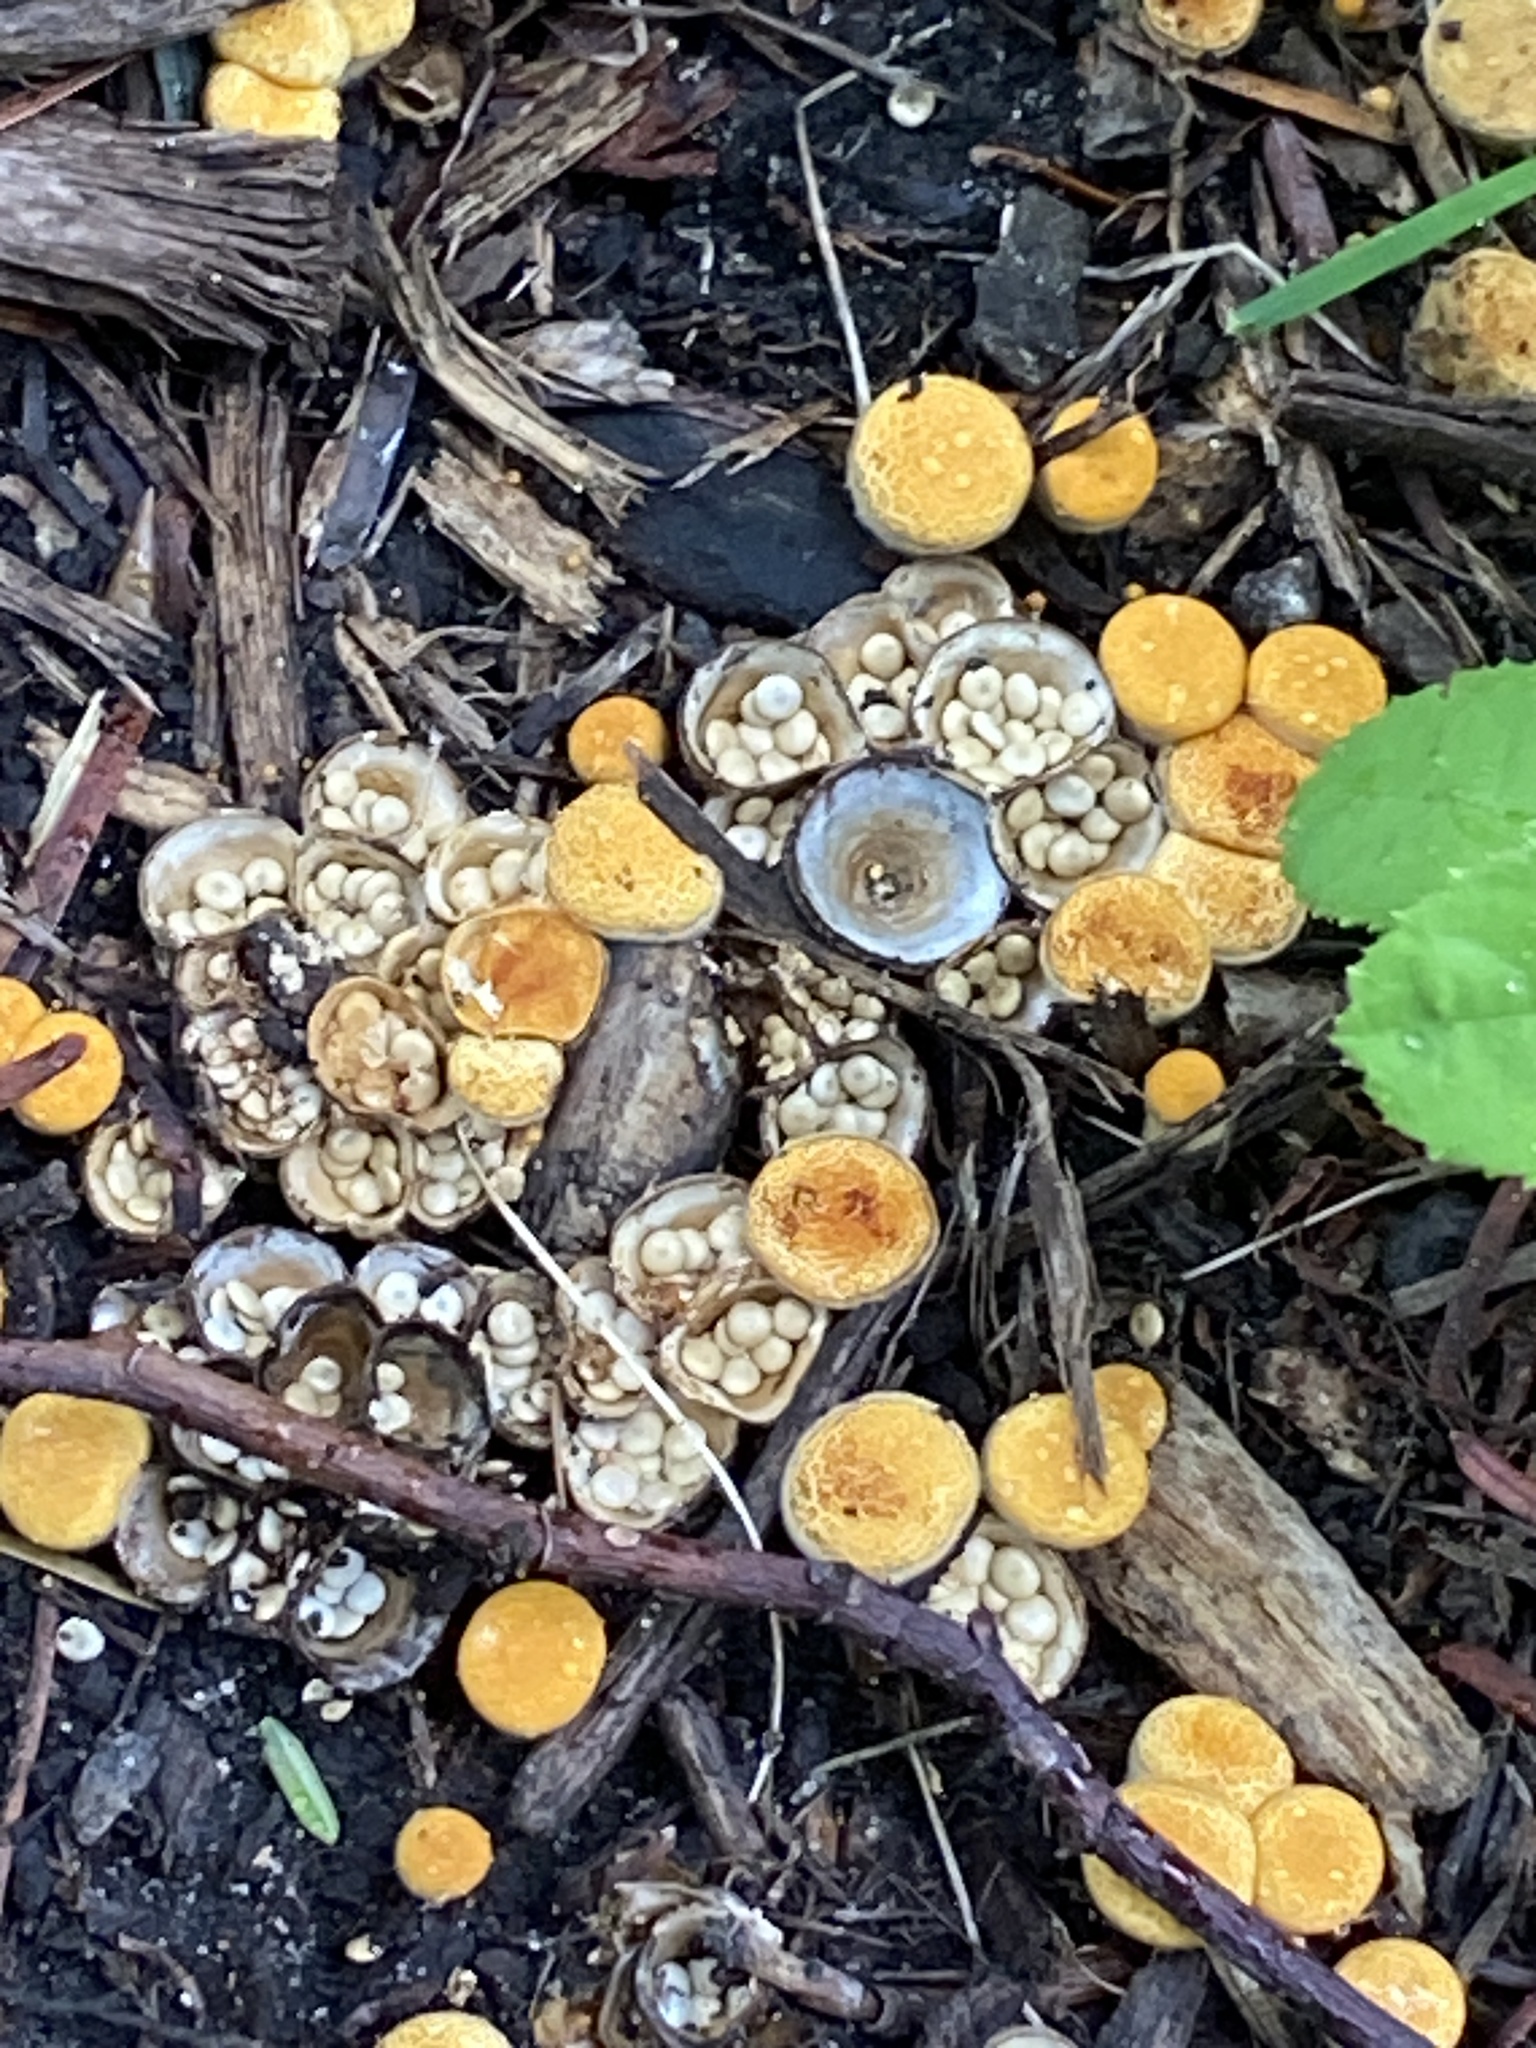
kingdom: Fungi
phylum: Basidiomycota
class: Agaricomycetes
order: Agaricales
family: Nidulariaceae
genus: Crucibulum
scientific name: Crucibulum laeve
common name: Common bird's nest
